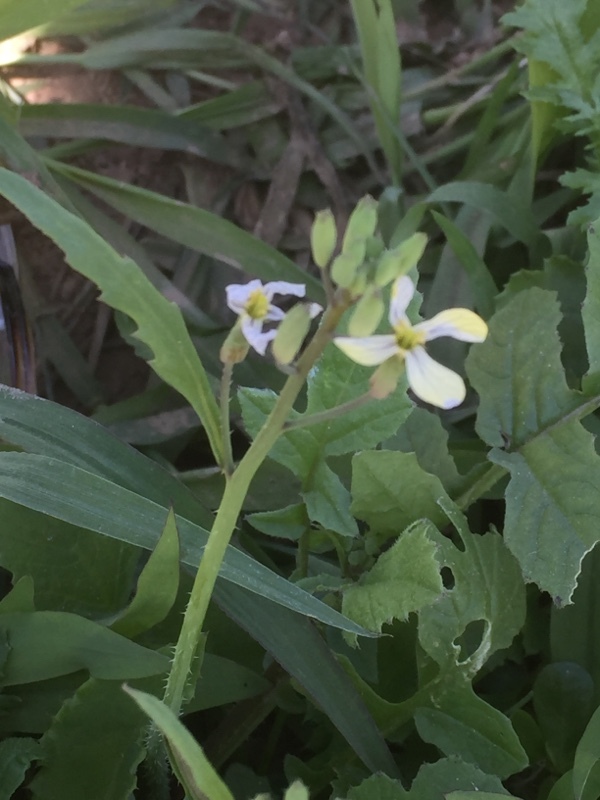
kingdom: Plantae
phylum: Tracheophyta
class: Magnoliopsida
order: Brassicales
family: Brassicaceae
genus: Raphanus
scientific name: Raphanus raphanistrum
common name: Wild radish
